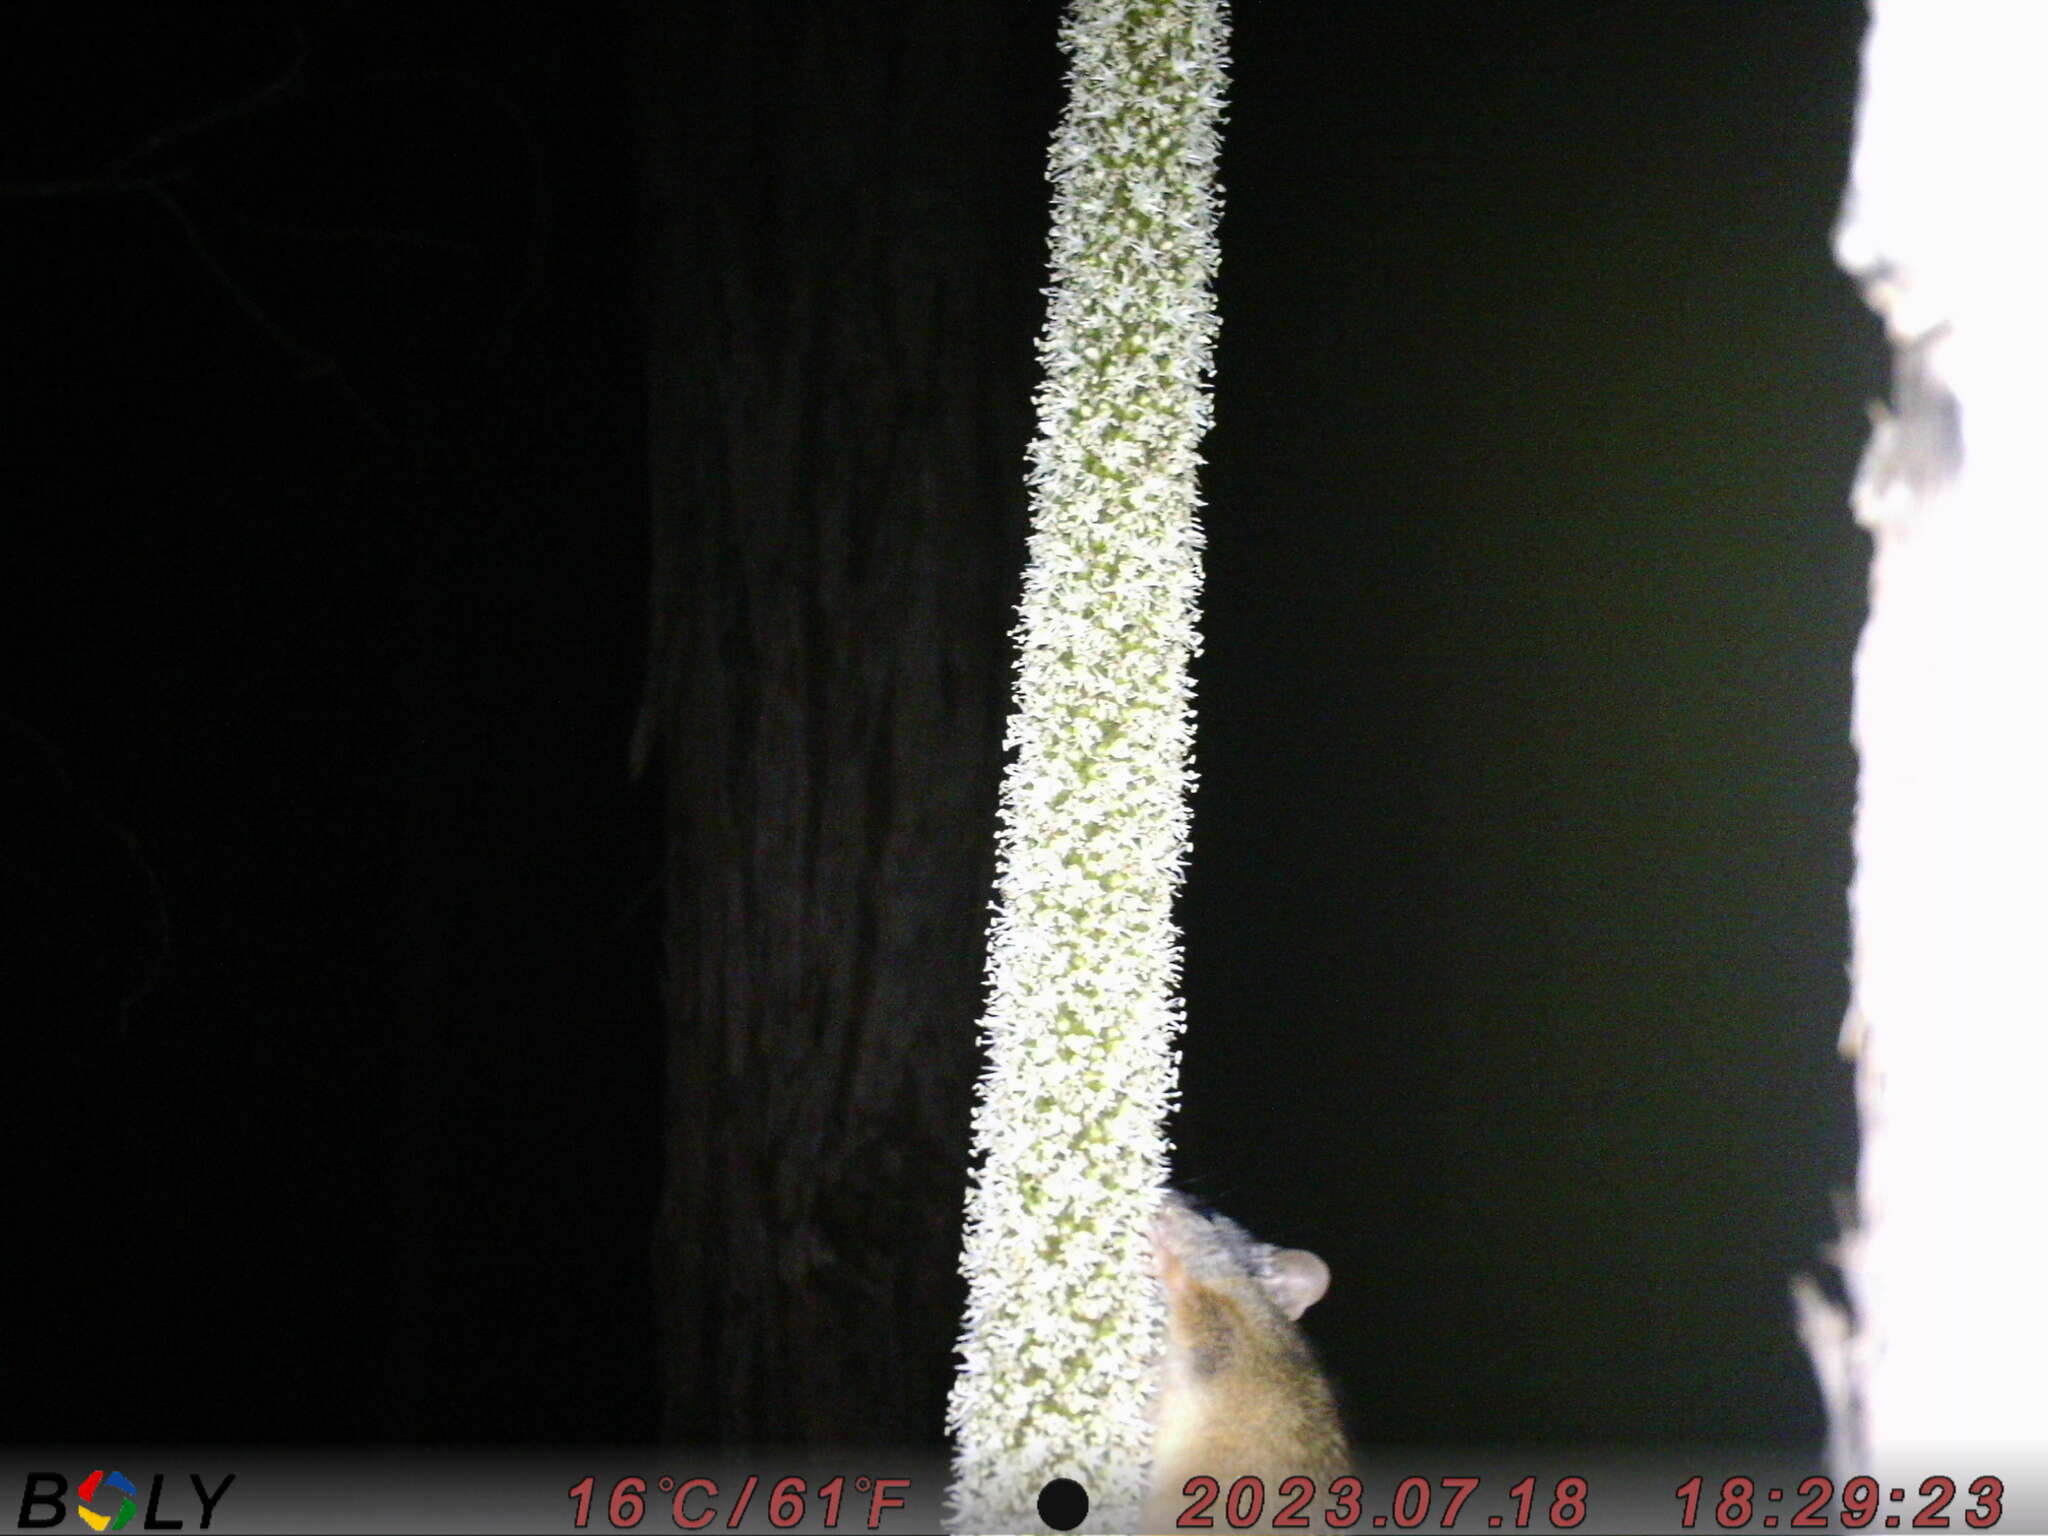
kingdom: Animalia
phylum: Chordata
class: Mammalia
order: Dasyuromorphia
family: Dasyuridae
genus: Antechinus
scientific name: Antechinus flavipes
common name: Yellow-footed antechinus
